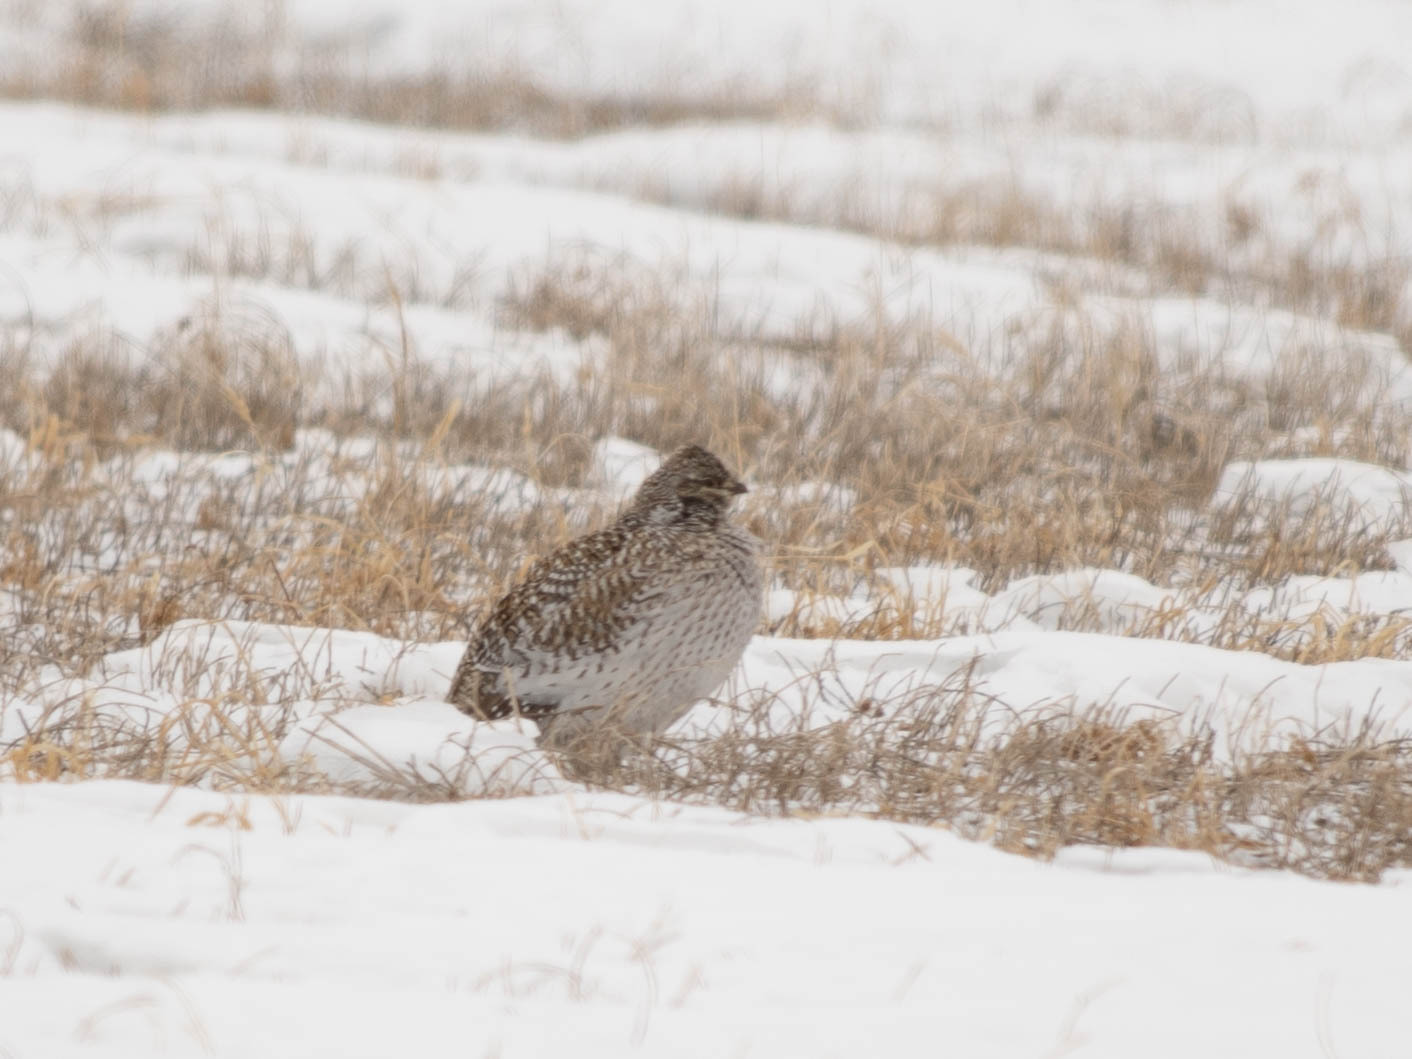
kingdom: Animalia
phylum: Chordata
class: Aves
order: Galliformes
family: Phasianidae
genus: Tympanuchus
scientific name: Tympanuchus phasianellus
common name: Sharp-tailed grouse
